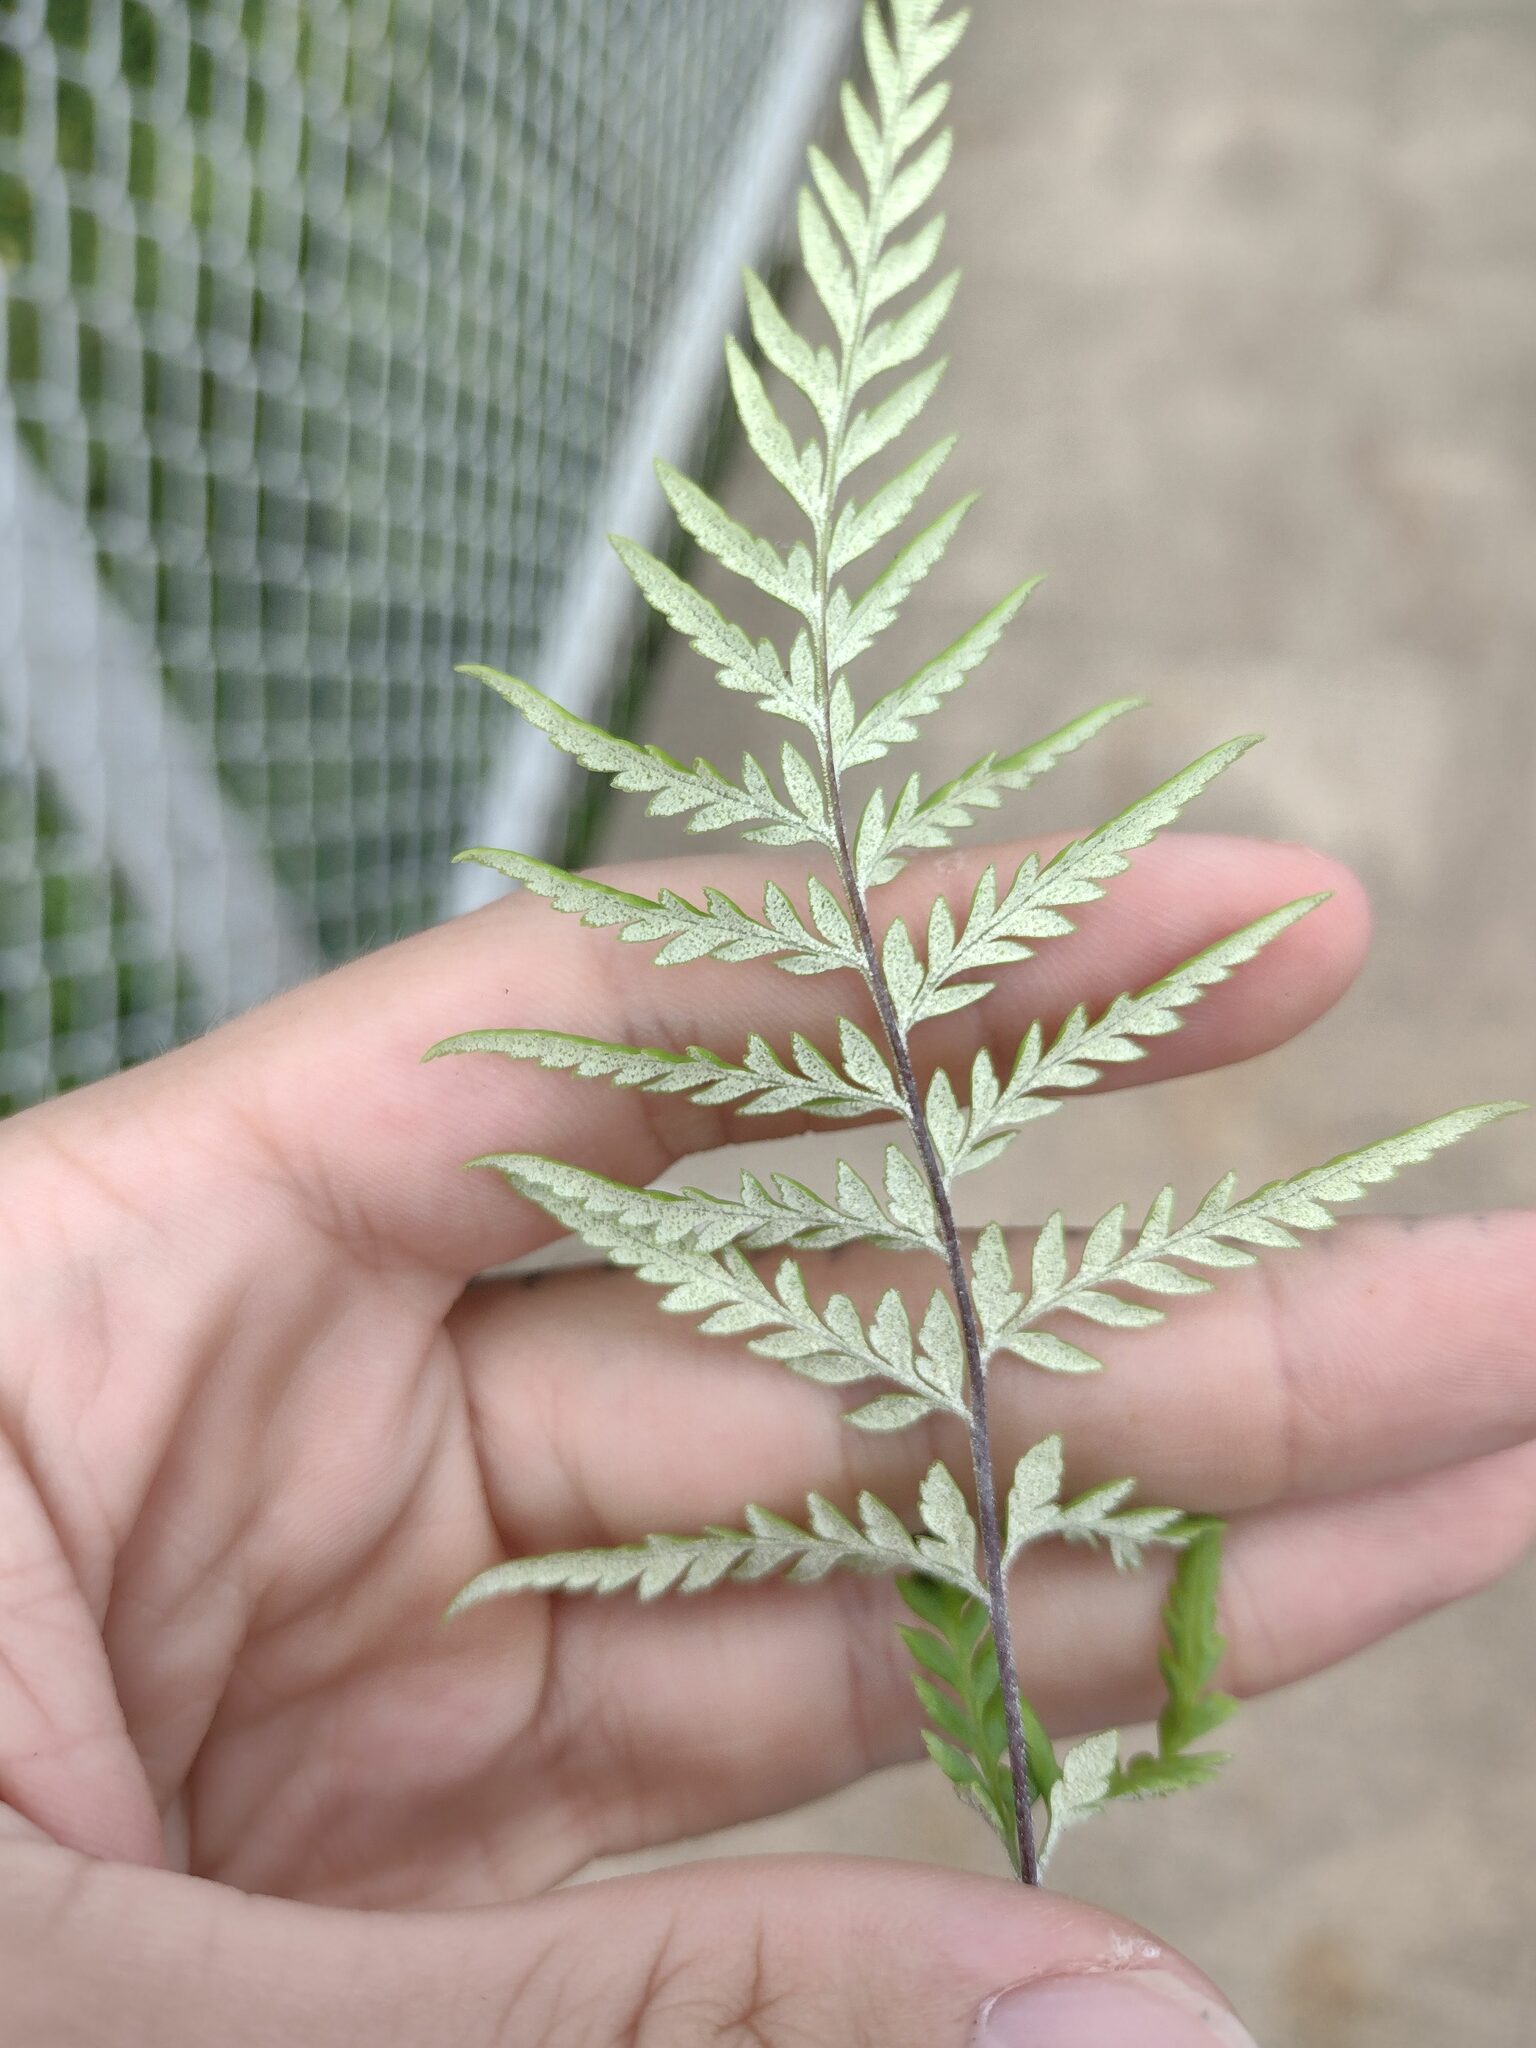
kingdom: Plantae
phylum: Tracheophyta
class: Polypodiopsida
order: Polypodiales
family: Pteridaceae
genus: Pityrogramma
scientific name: Pityrogramma calomelanos
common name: Dixie silverback fern
